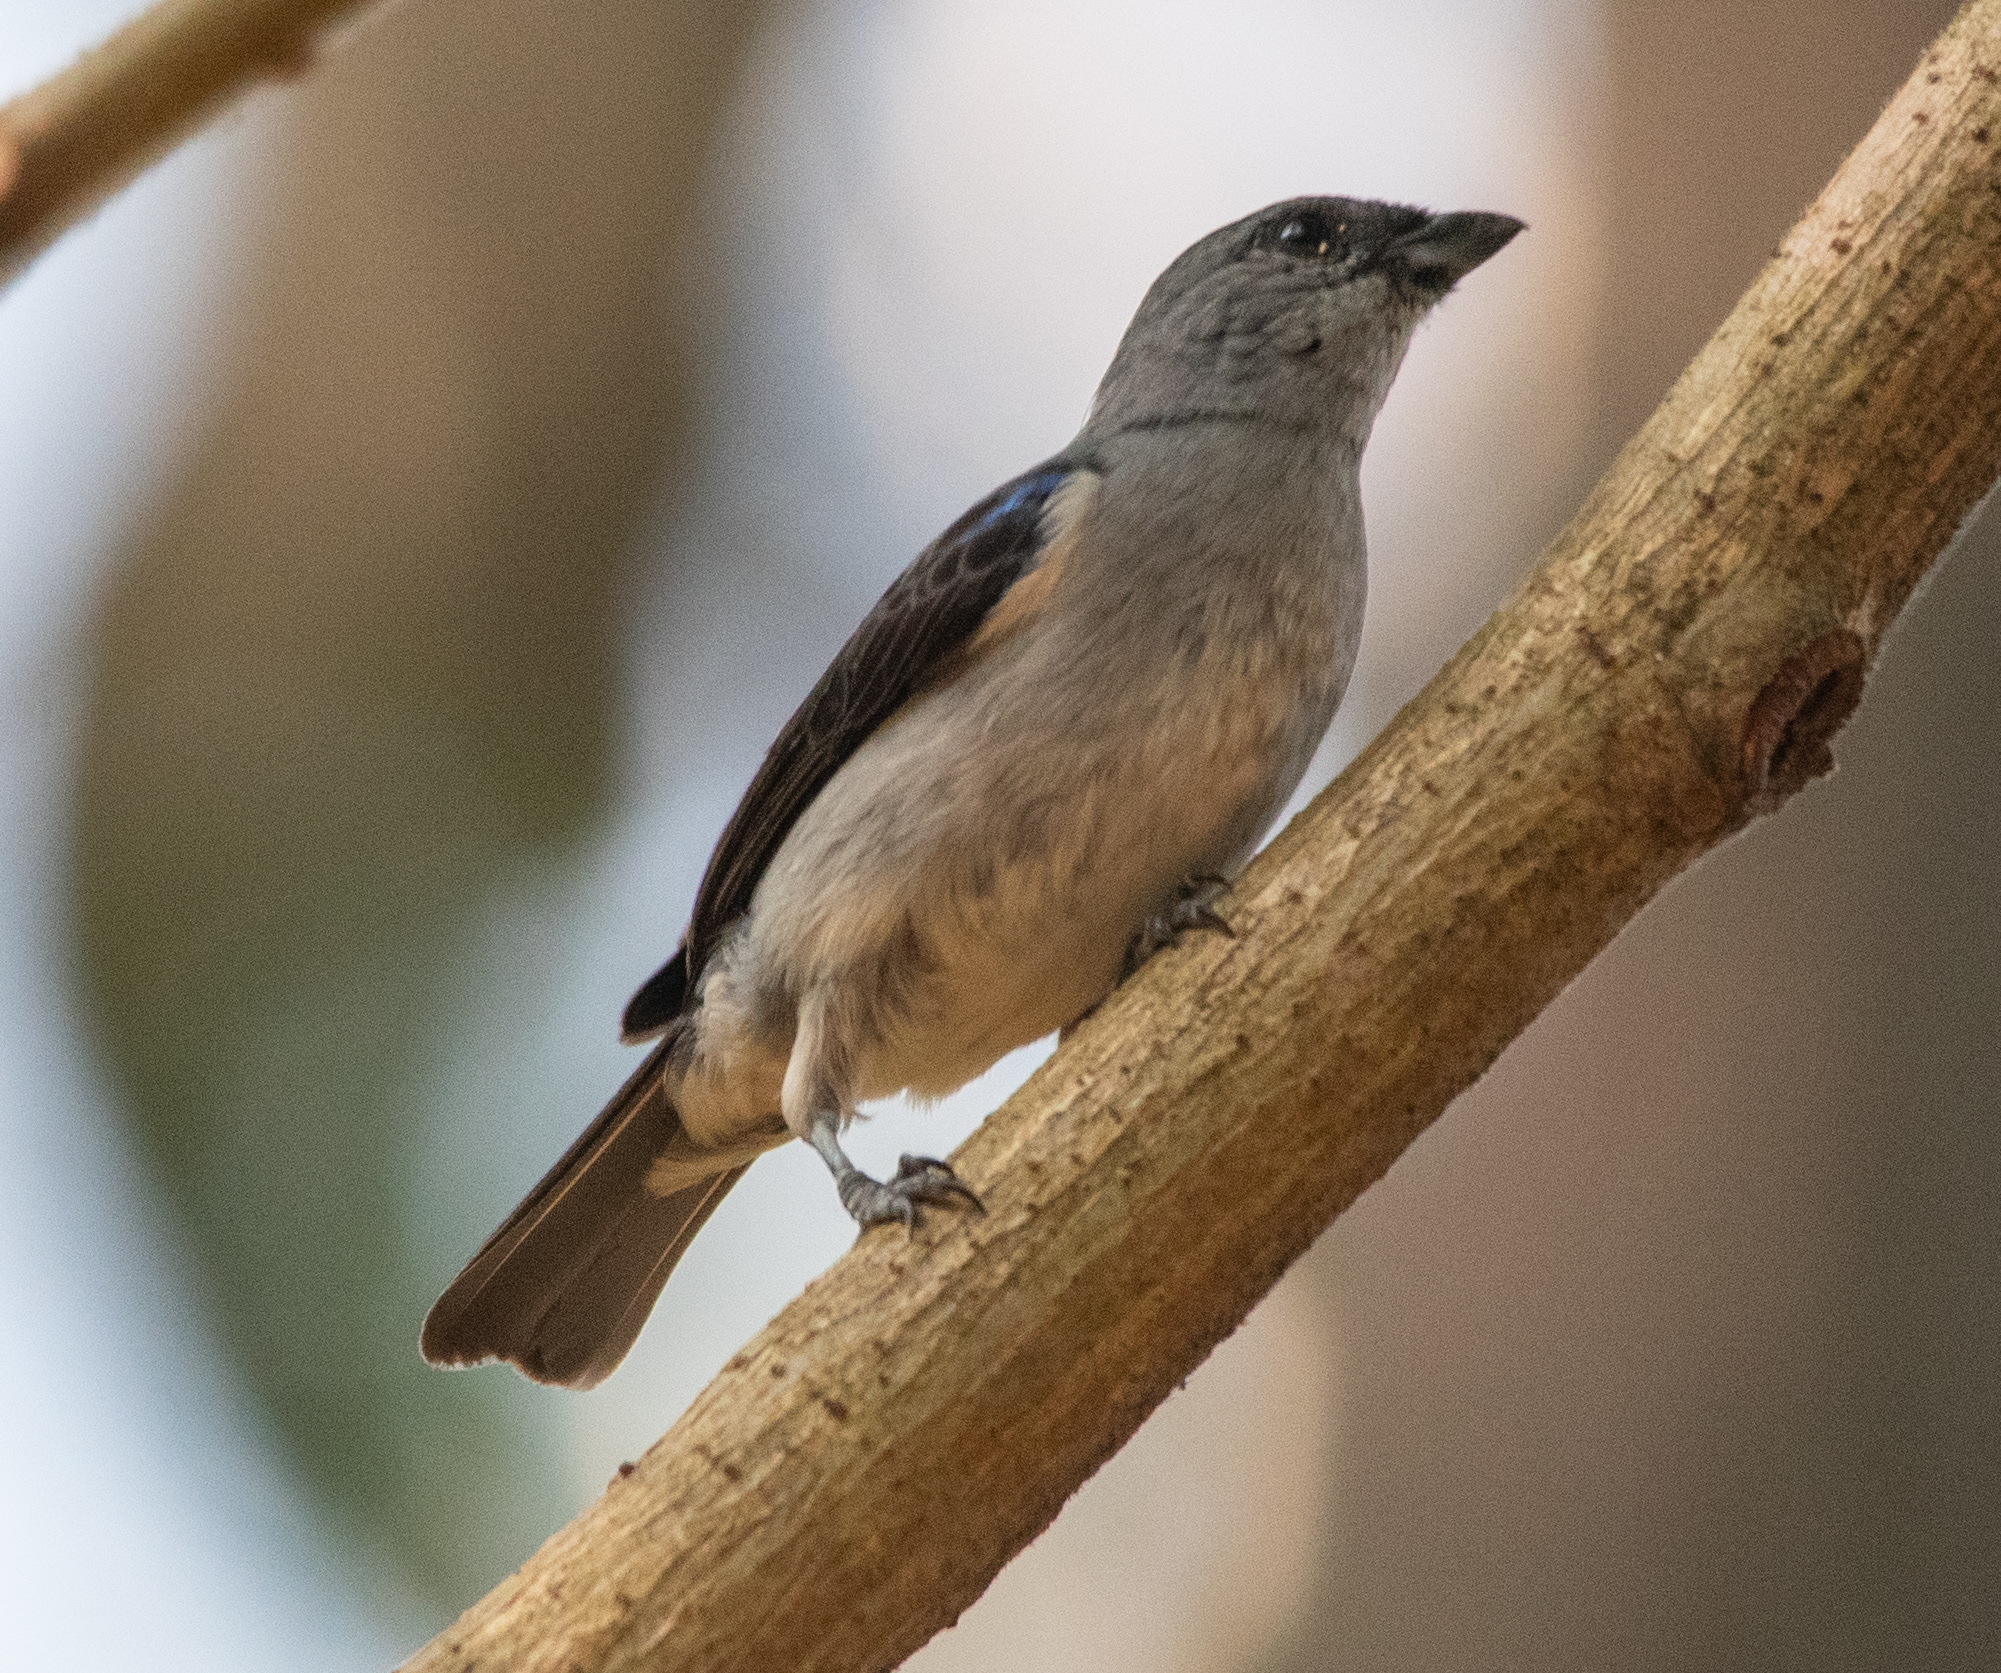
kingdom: Animalia
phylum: Chordata
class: Aves
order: Passeriformes
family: Thraupidae
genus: Tangara
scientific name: Tangara inornata
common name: Plain-colored tanager
